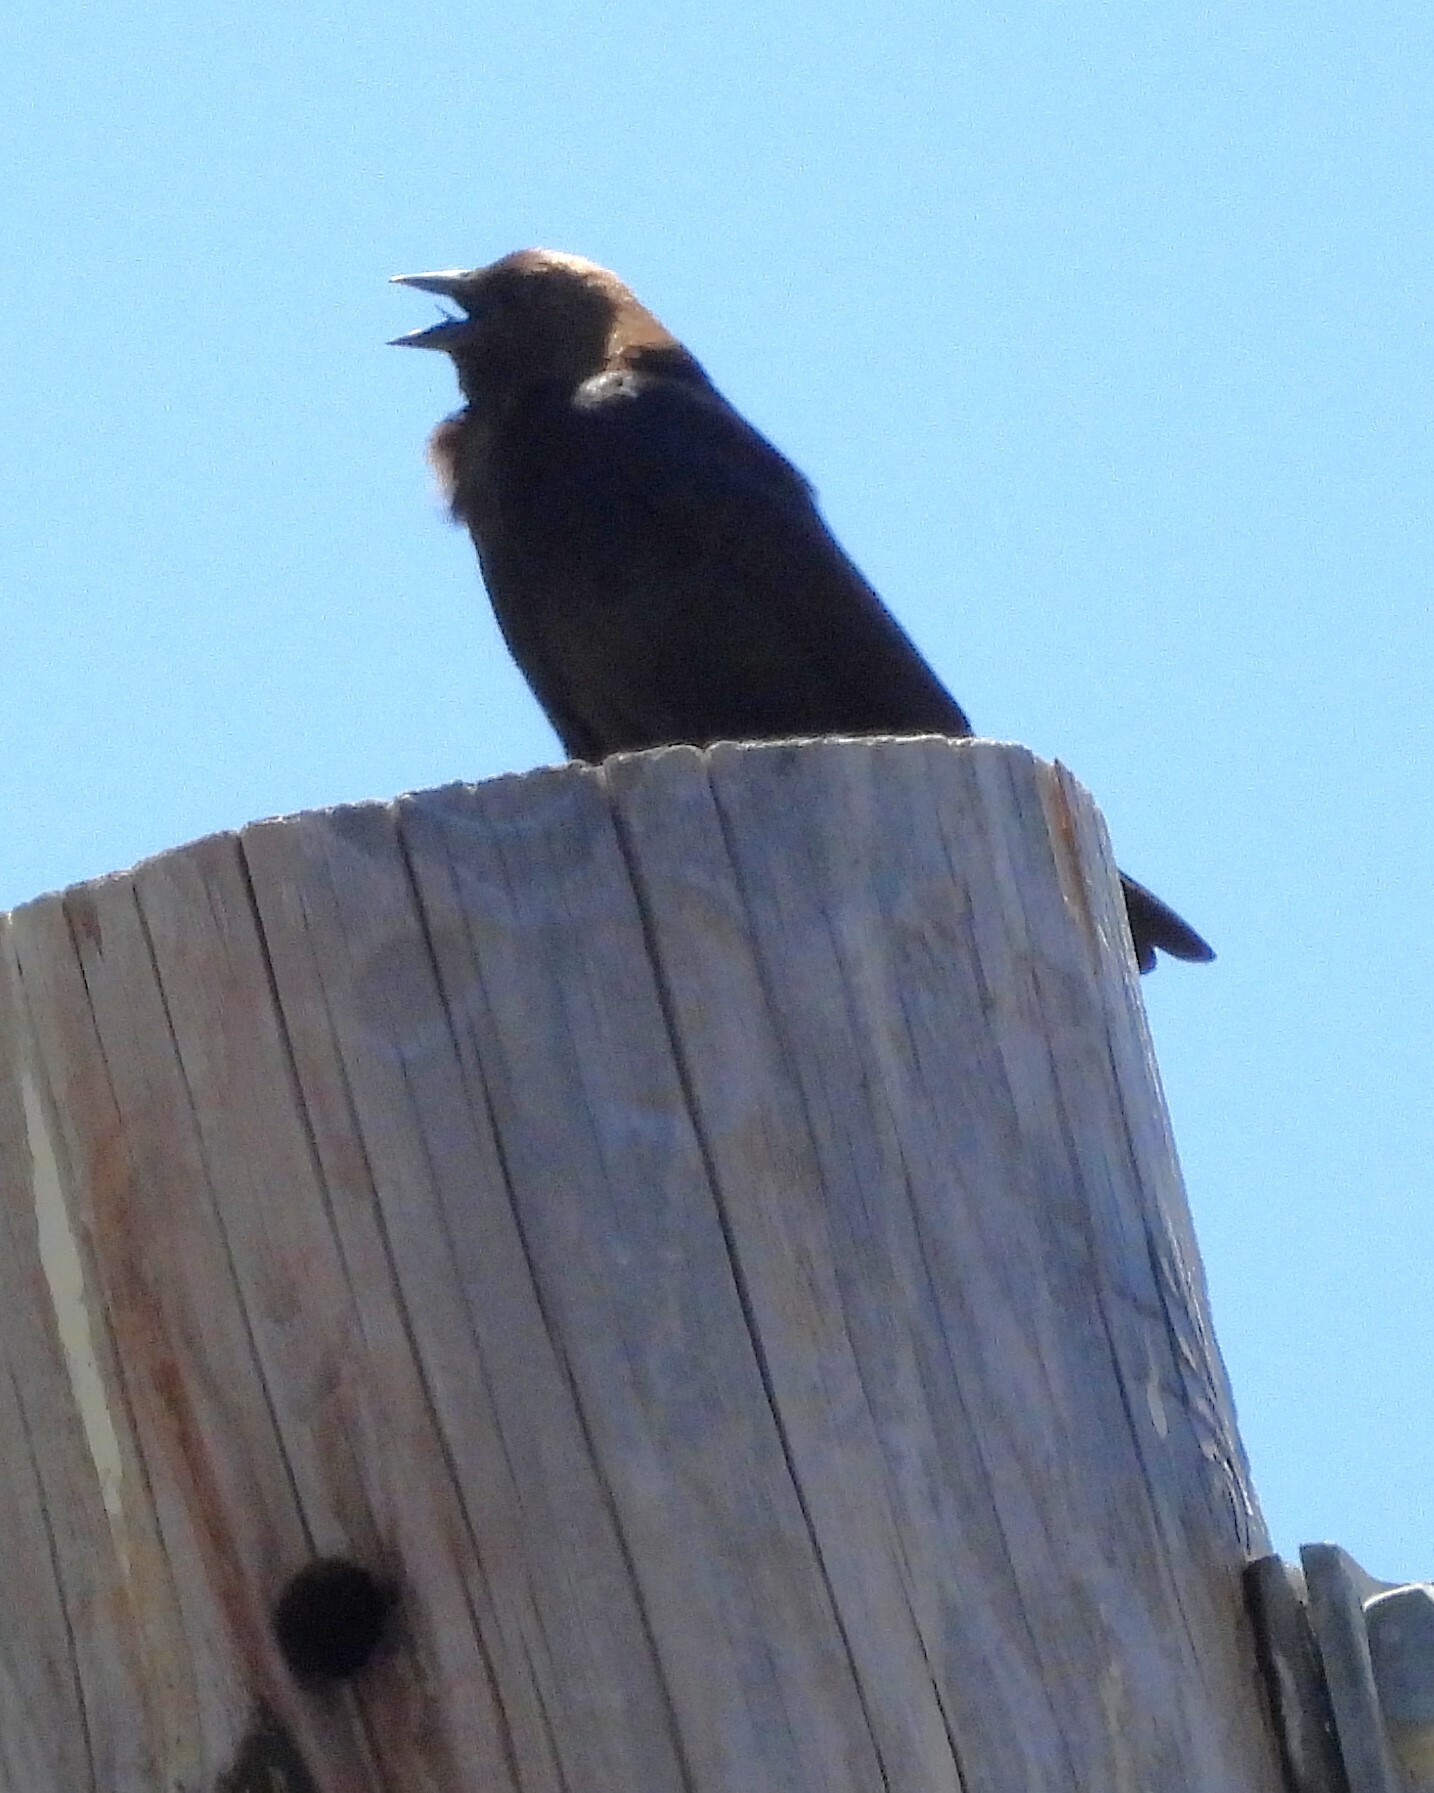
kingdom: Animalia
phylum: Chordata
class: Aves
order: Passeriformes
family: Icteridae
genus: Molothrus
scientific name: Molothrus ater
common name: Brown-headed cowbird
